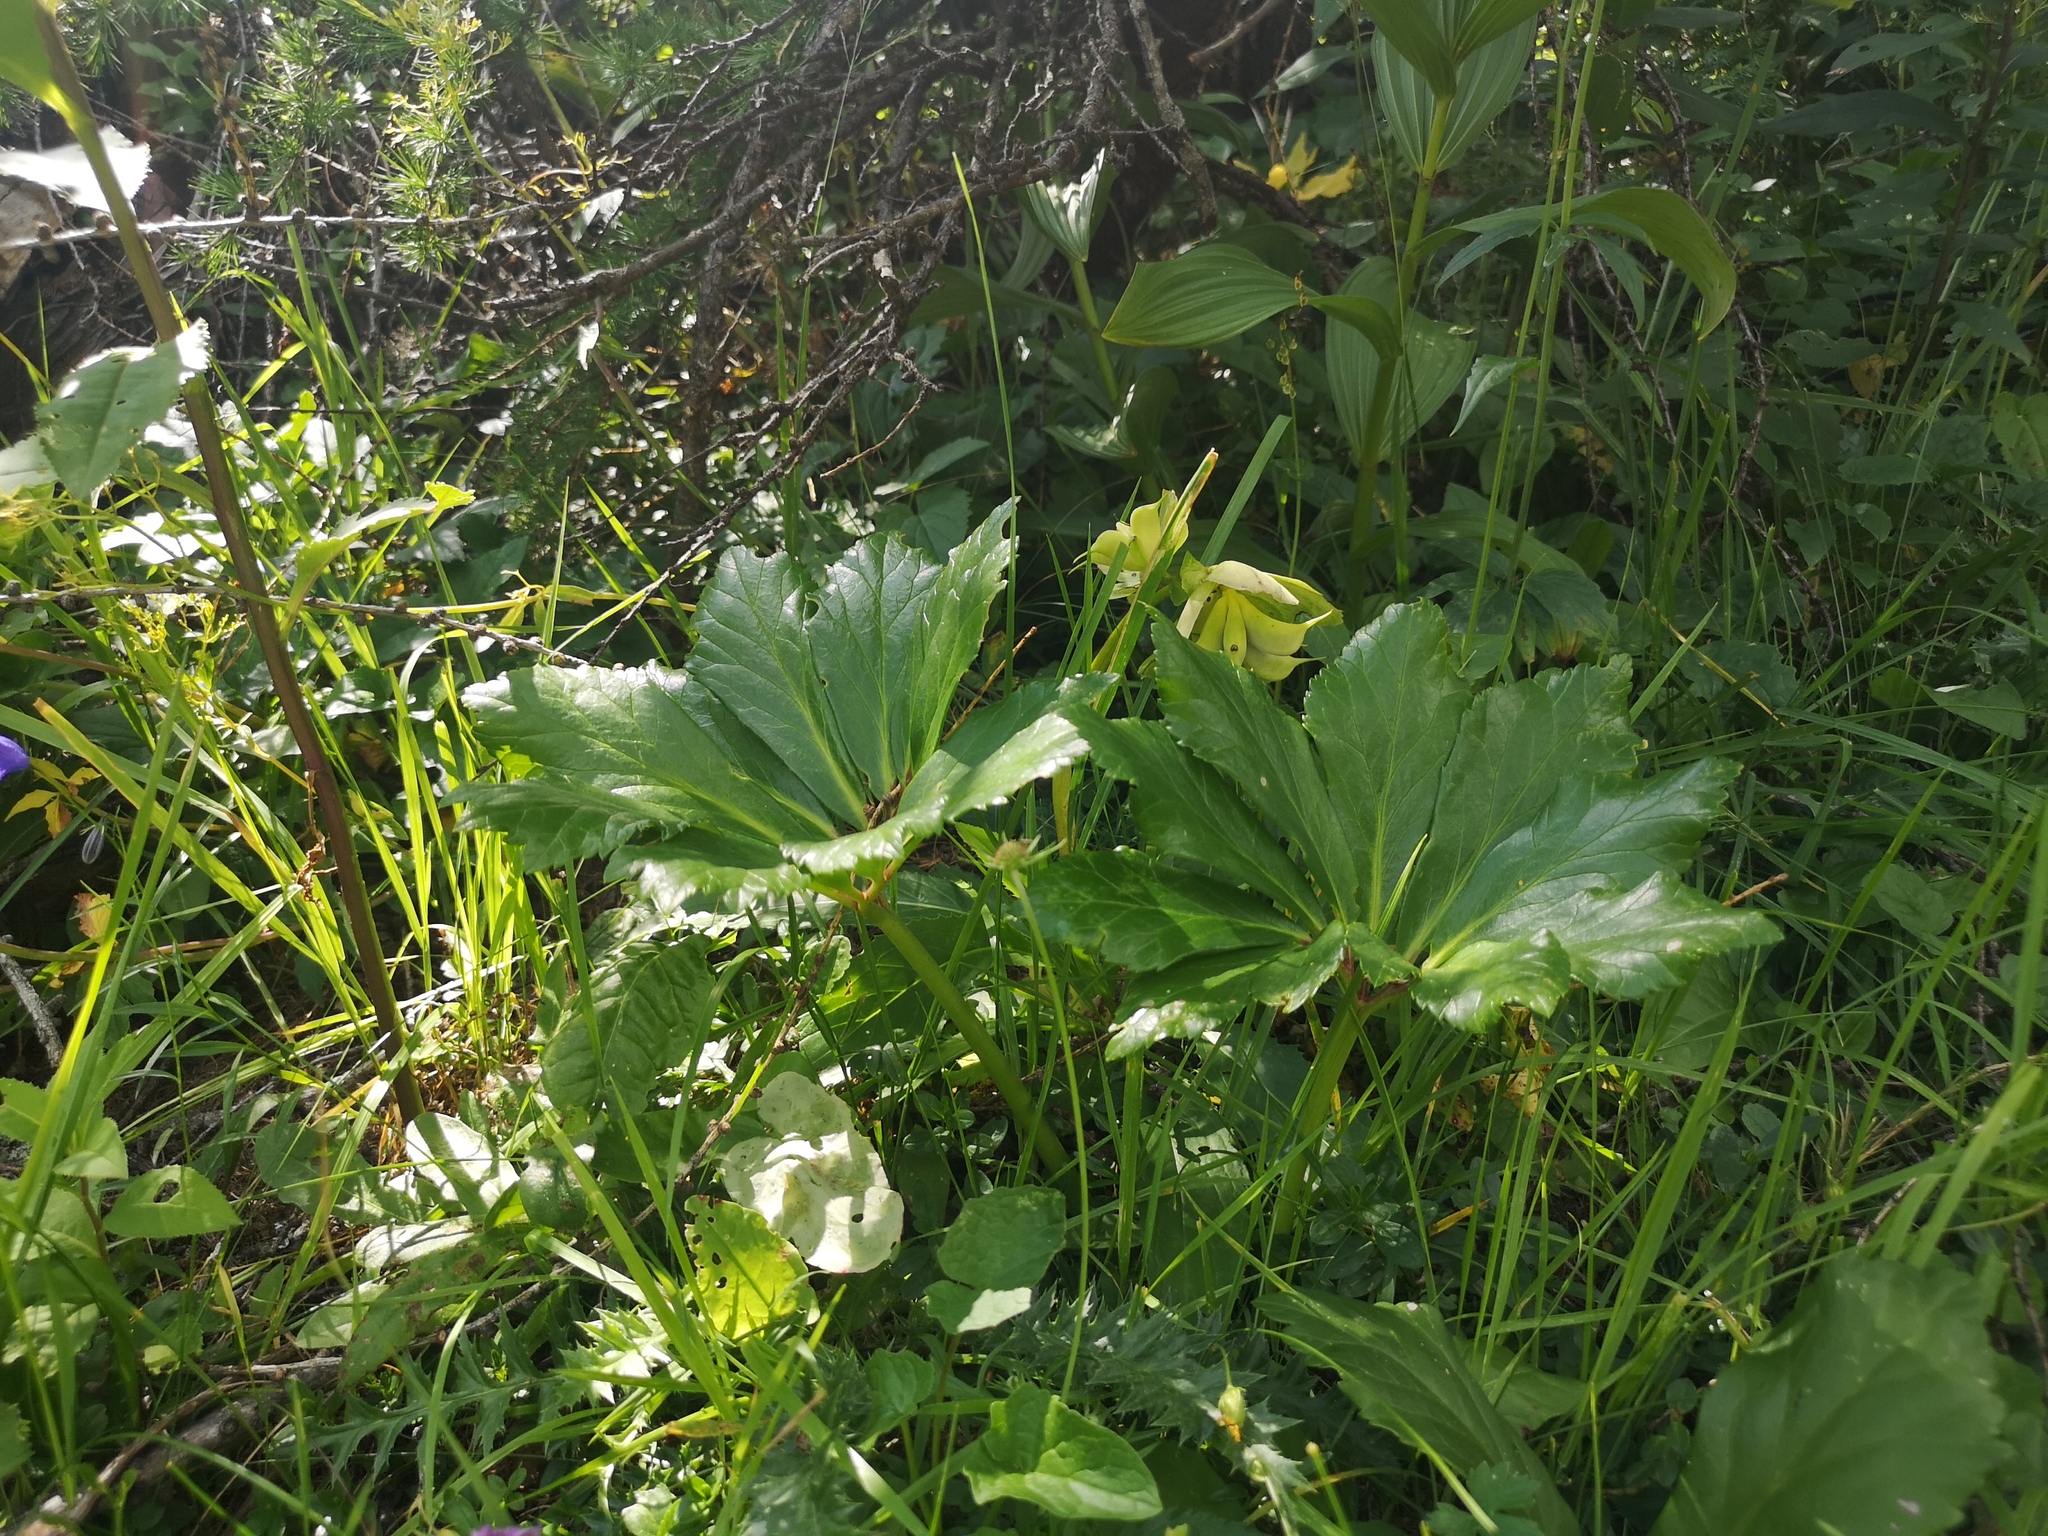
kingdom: Plantae
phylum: Tracheophyta
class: Magnoliopsida
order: Ranunculales
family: Ranunculaceae
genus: Helleborus
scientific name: Helleborus niger
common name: Black hellebore
